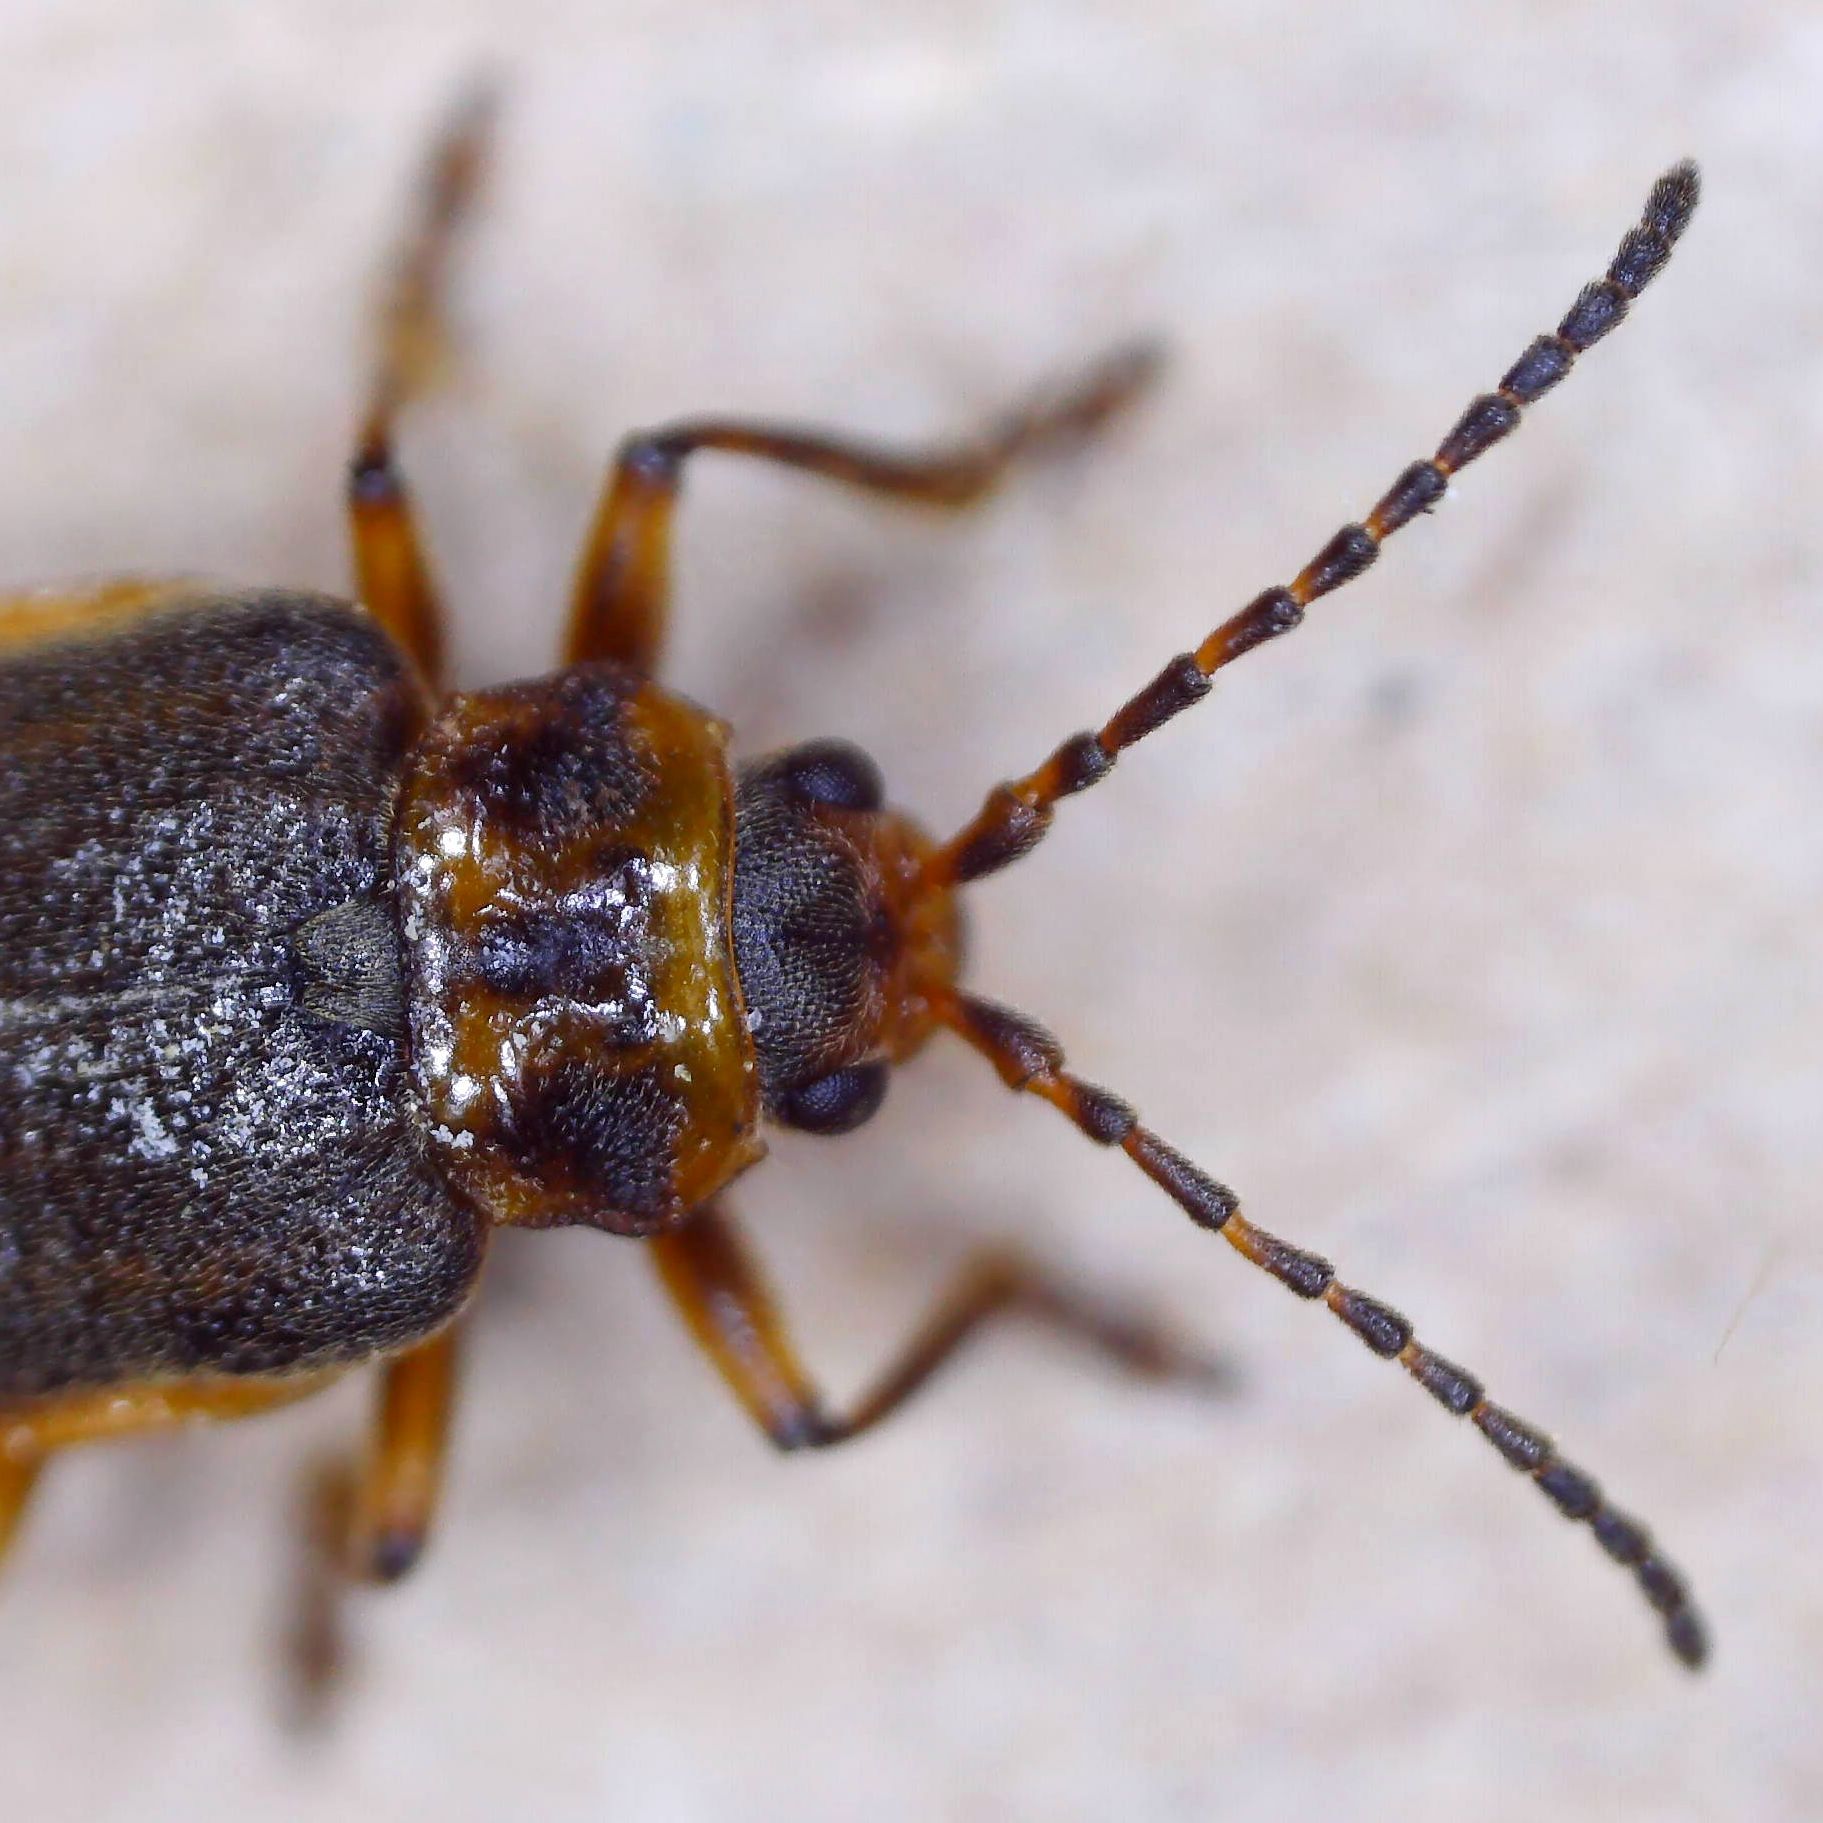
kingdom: Animalia
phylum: Arthropoda
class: Insecta
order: Coleoptera
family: Chrysomelidae
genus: Galerucella
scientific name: Galerucella nymphaeae
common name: Leaf beetle
